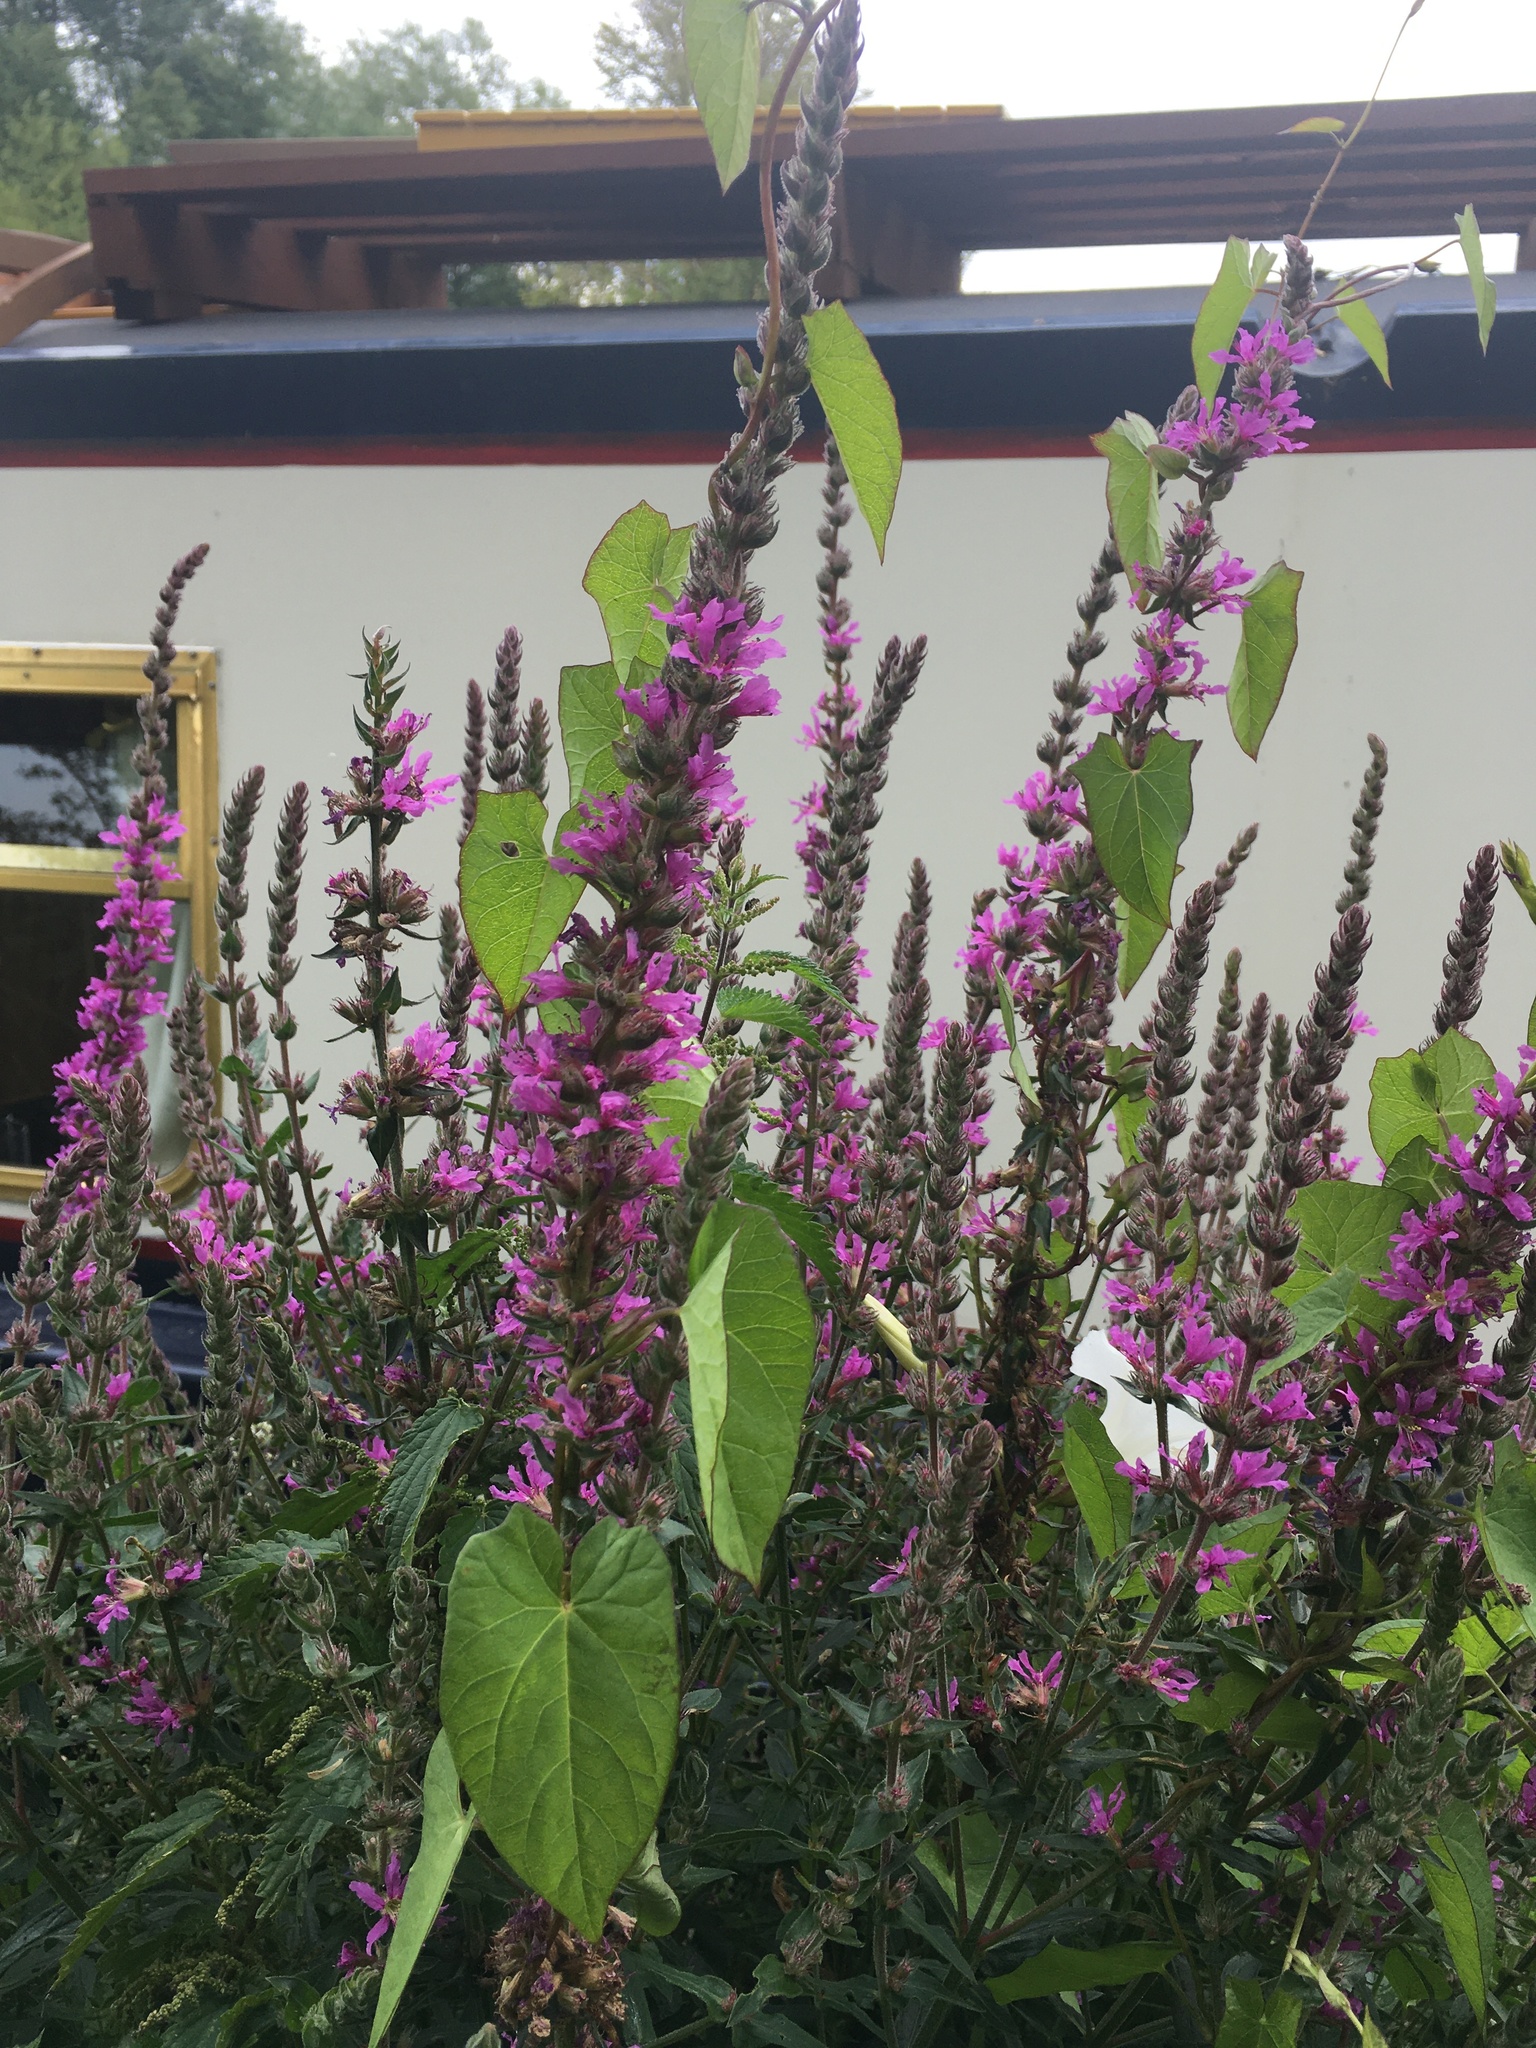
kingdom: Plantae
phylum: Tracheophyta
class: Magnoliopsida
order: Myrtales
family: Lythraceae
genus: Lythrum
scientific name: Lythrum salicaria
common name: Purple loosestrife
